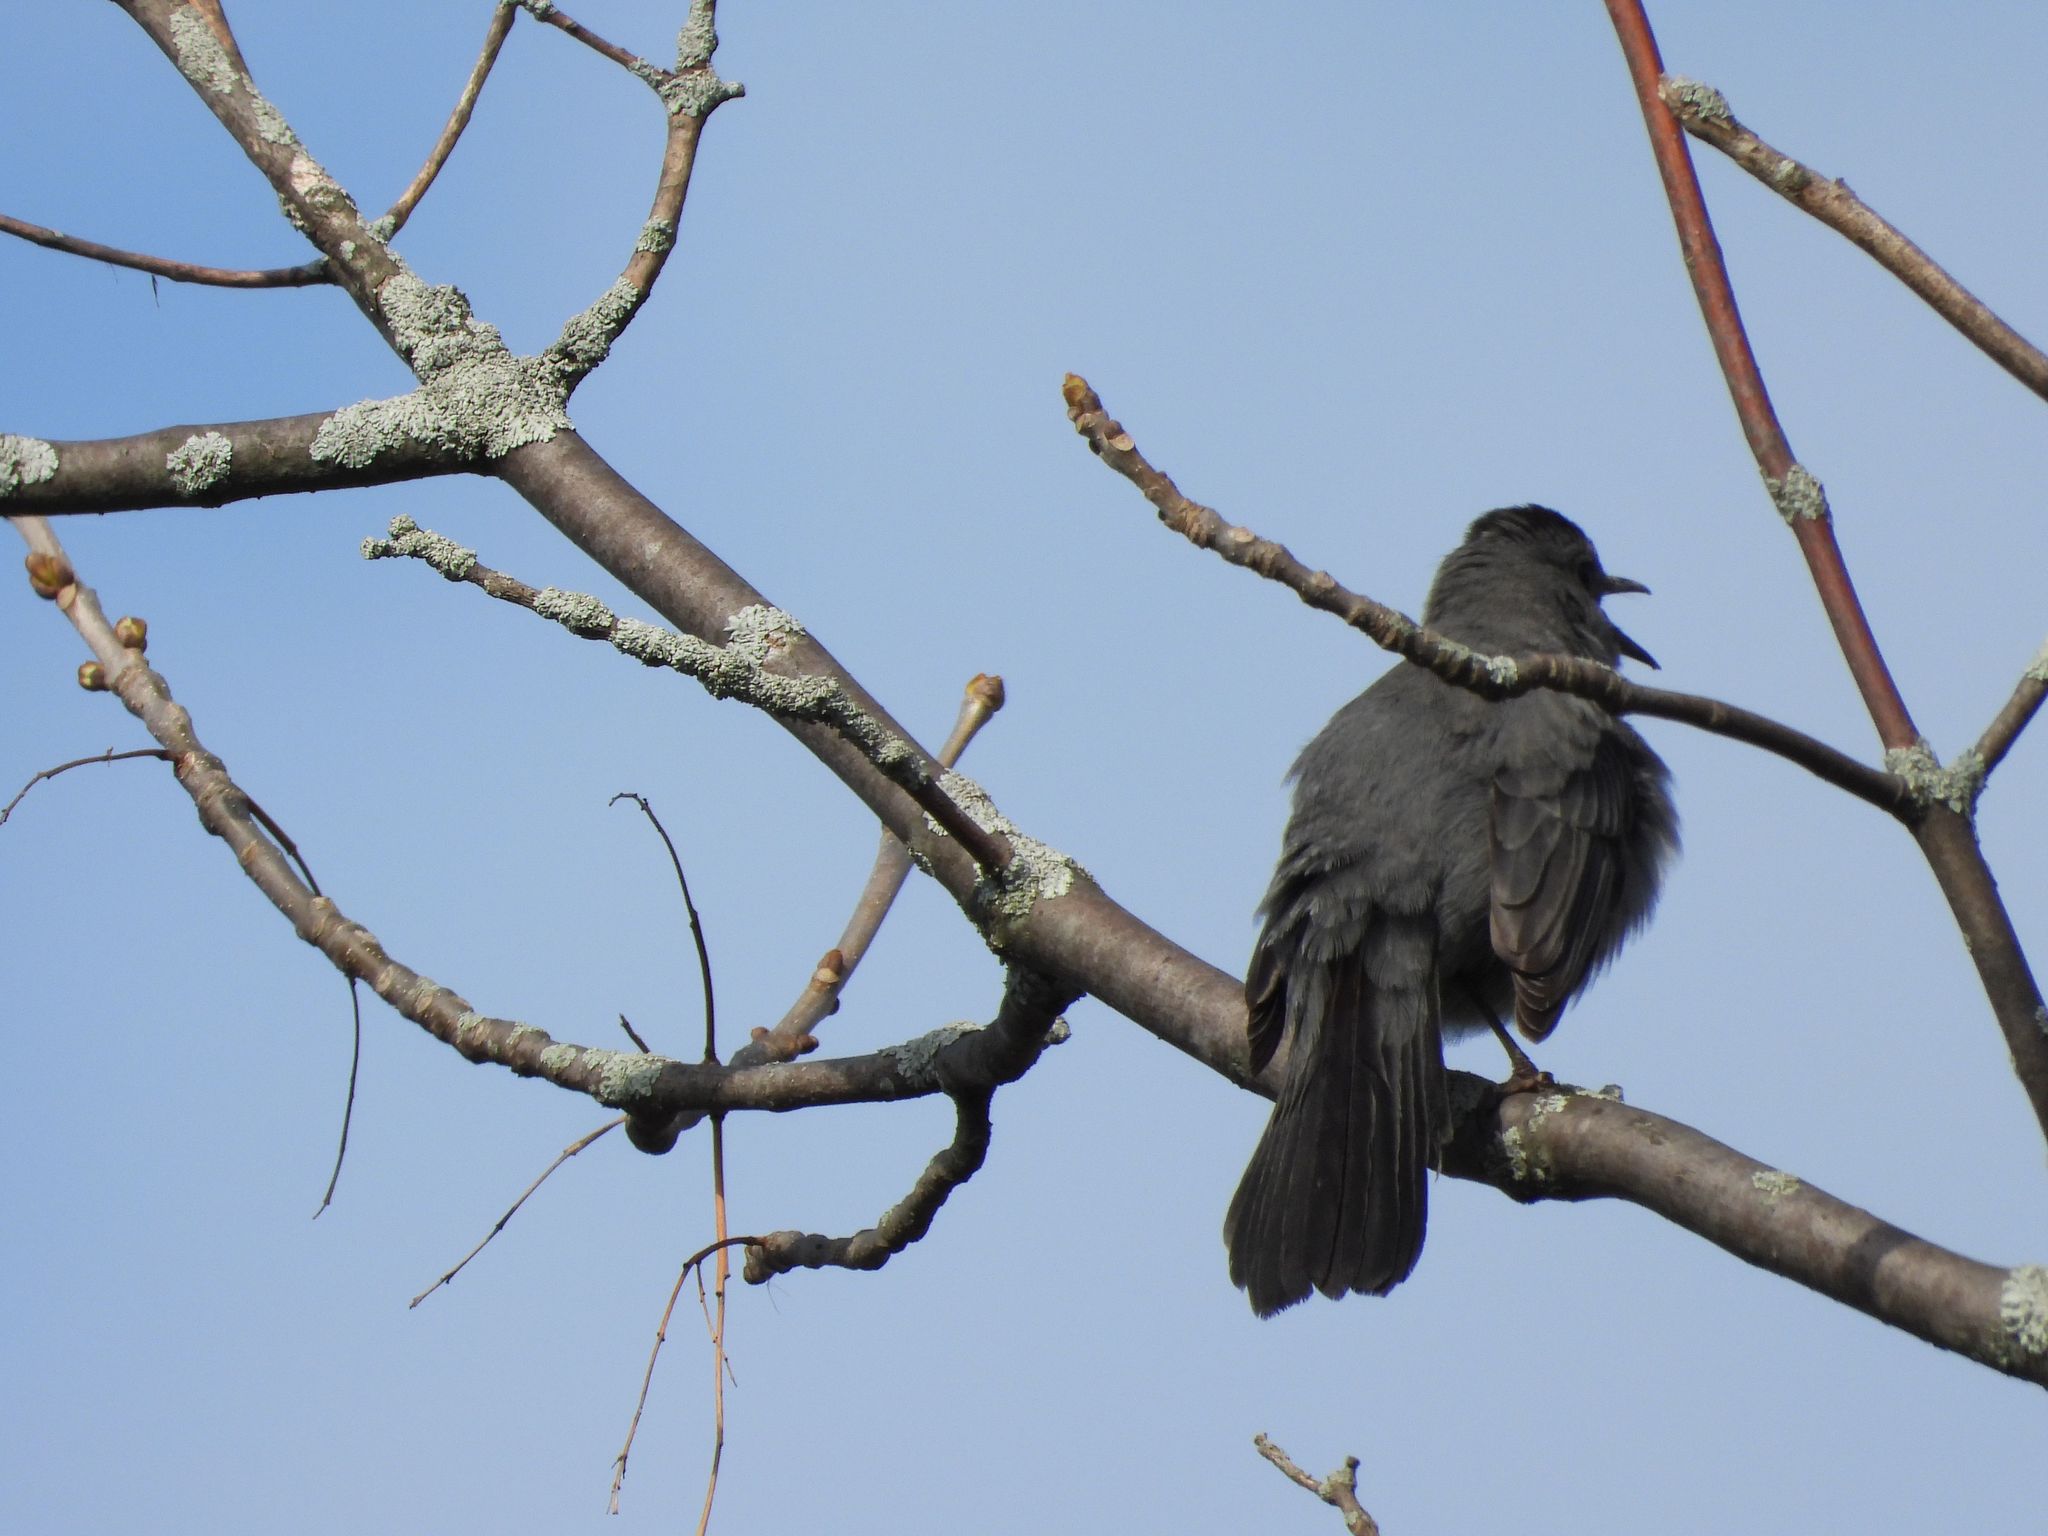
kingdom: Animalia
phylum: Chordata
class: Aves
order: Passeriformes
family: Mimidae
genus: Dumetella
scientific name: Dumetella carolinensis
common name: Gray catbird
